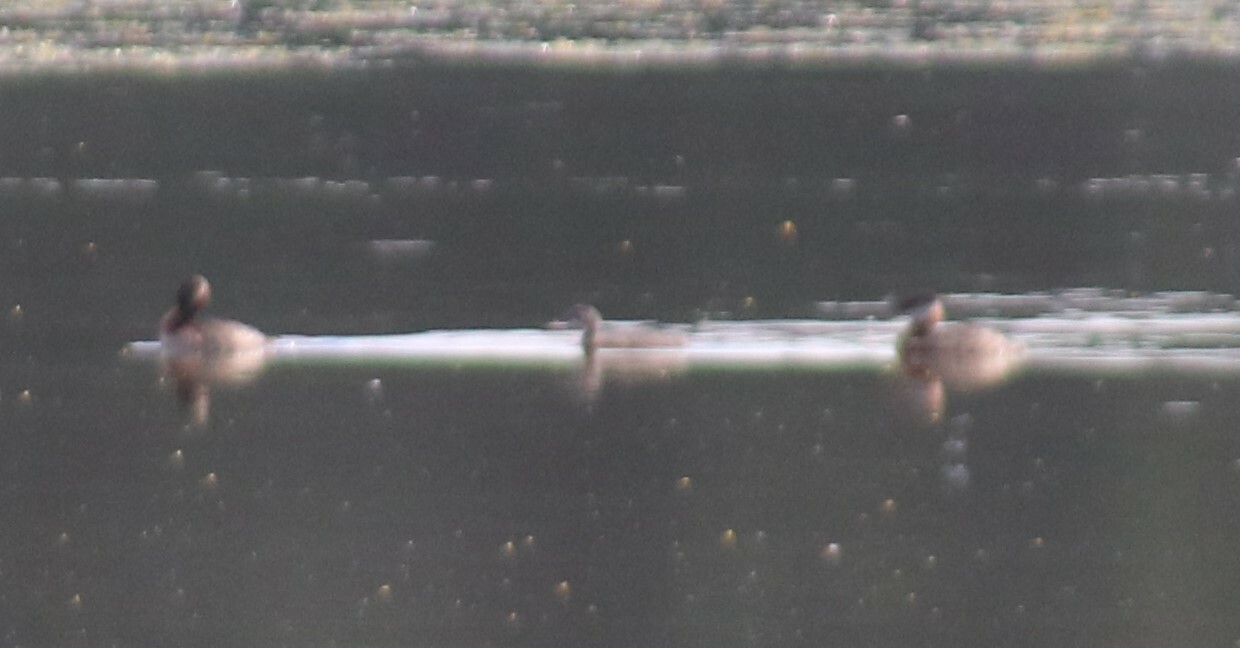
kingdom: Animalia
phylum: Chordata
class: Aves
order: Podicipediformes
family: Podicipedidae
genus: Podiceps
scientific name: Podiceps grisegena
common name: Red-necked grebe
